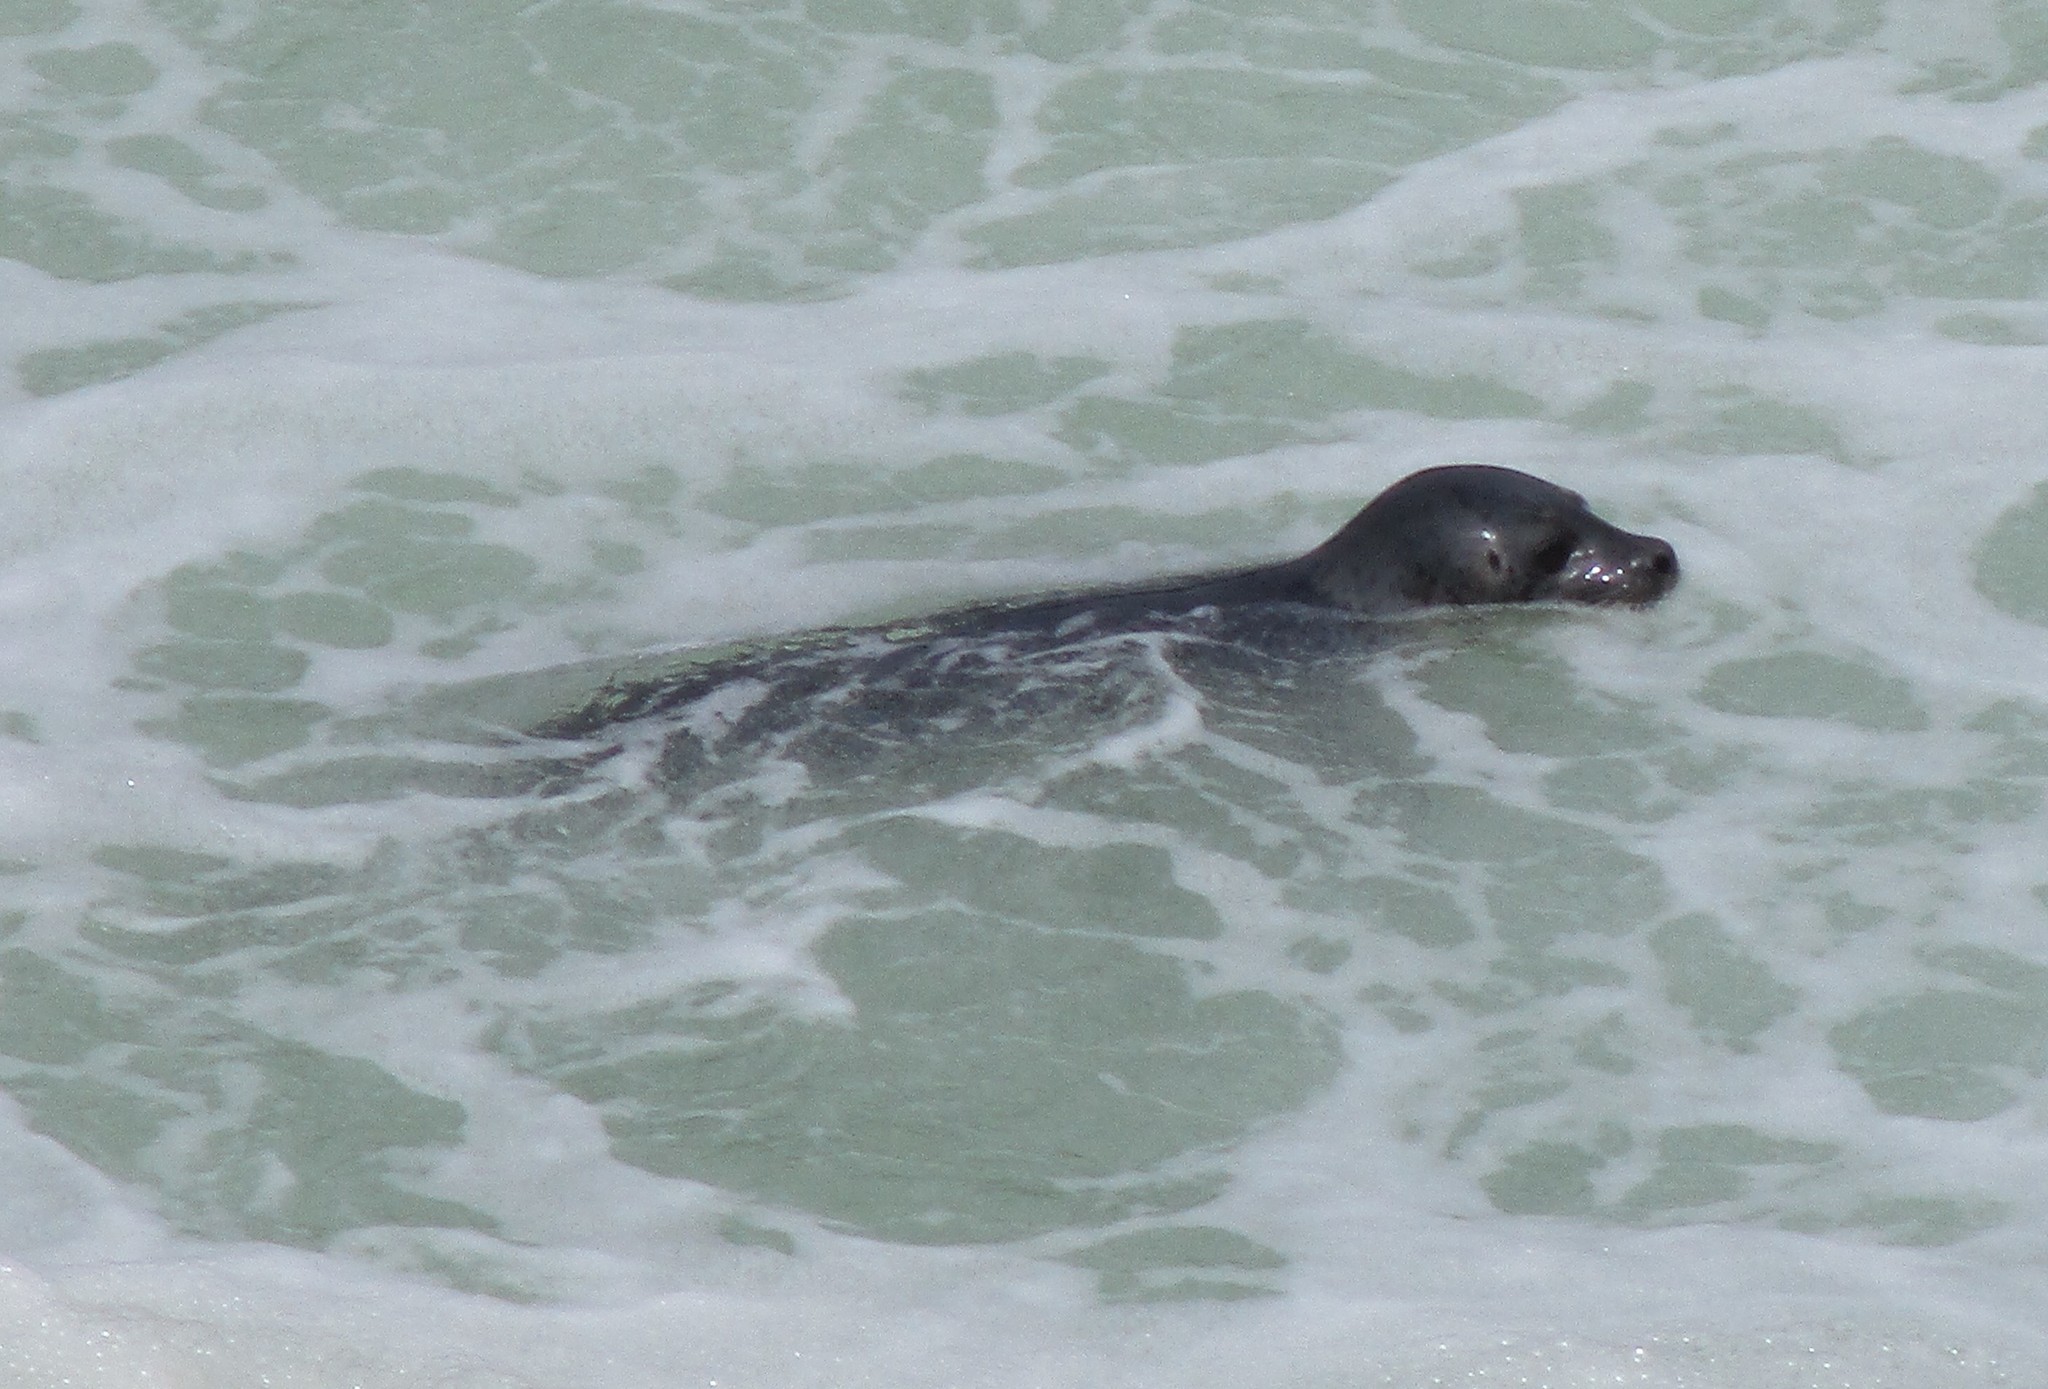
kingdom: Animalia
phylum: Chordata
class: Mammalia
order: Carnivora
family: Phocidae
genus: Phoca
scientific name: Phoca vitulina
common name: Harbor seal
